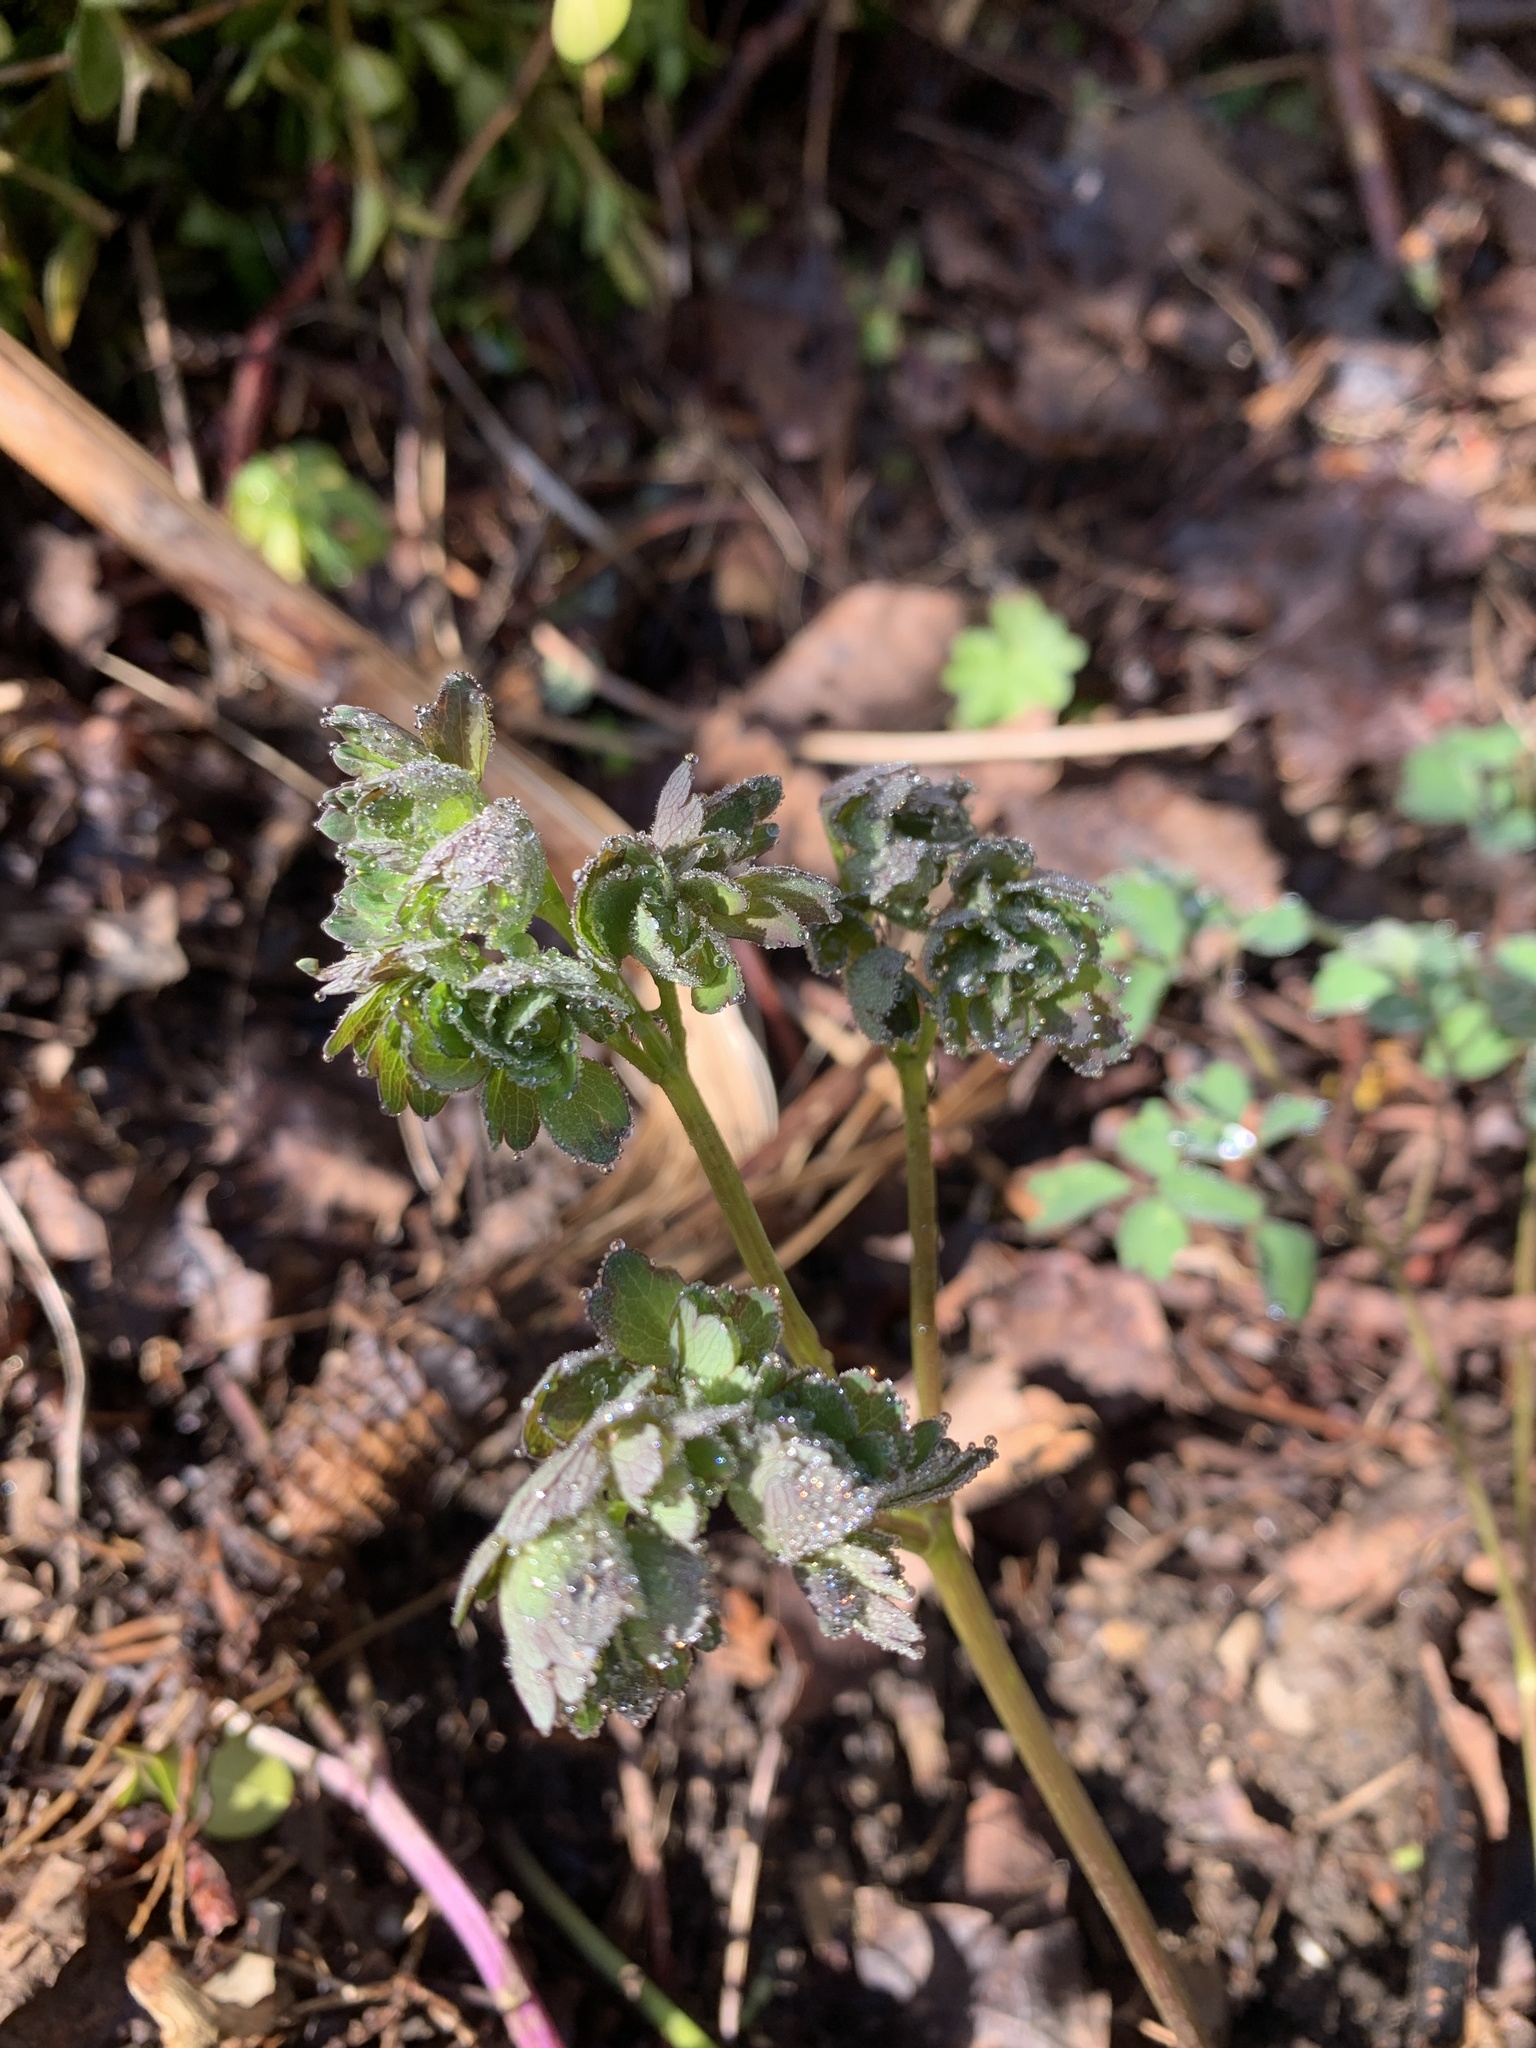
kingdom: Plantae
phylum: Tracheophyta
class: Magnoliopsida
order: Ranunculales
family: Ranunculaceae
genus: Thalictrum
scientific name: Thalictrum pubescens
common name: King-of-the-meadow
